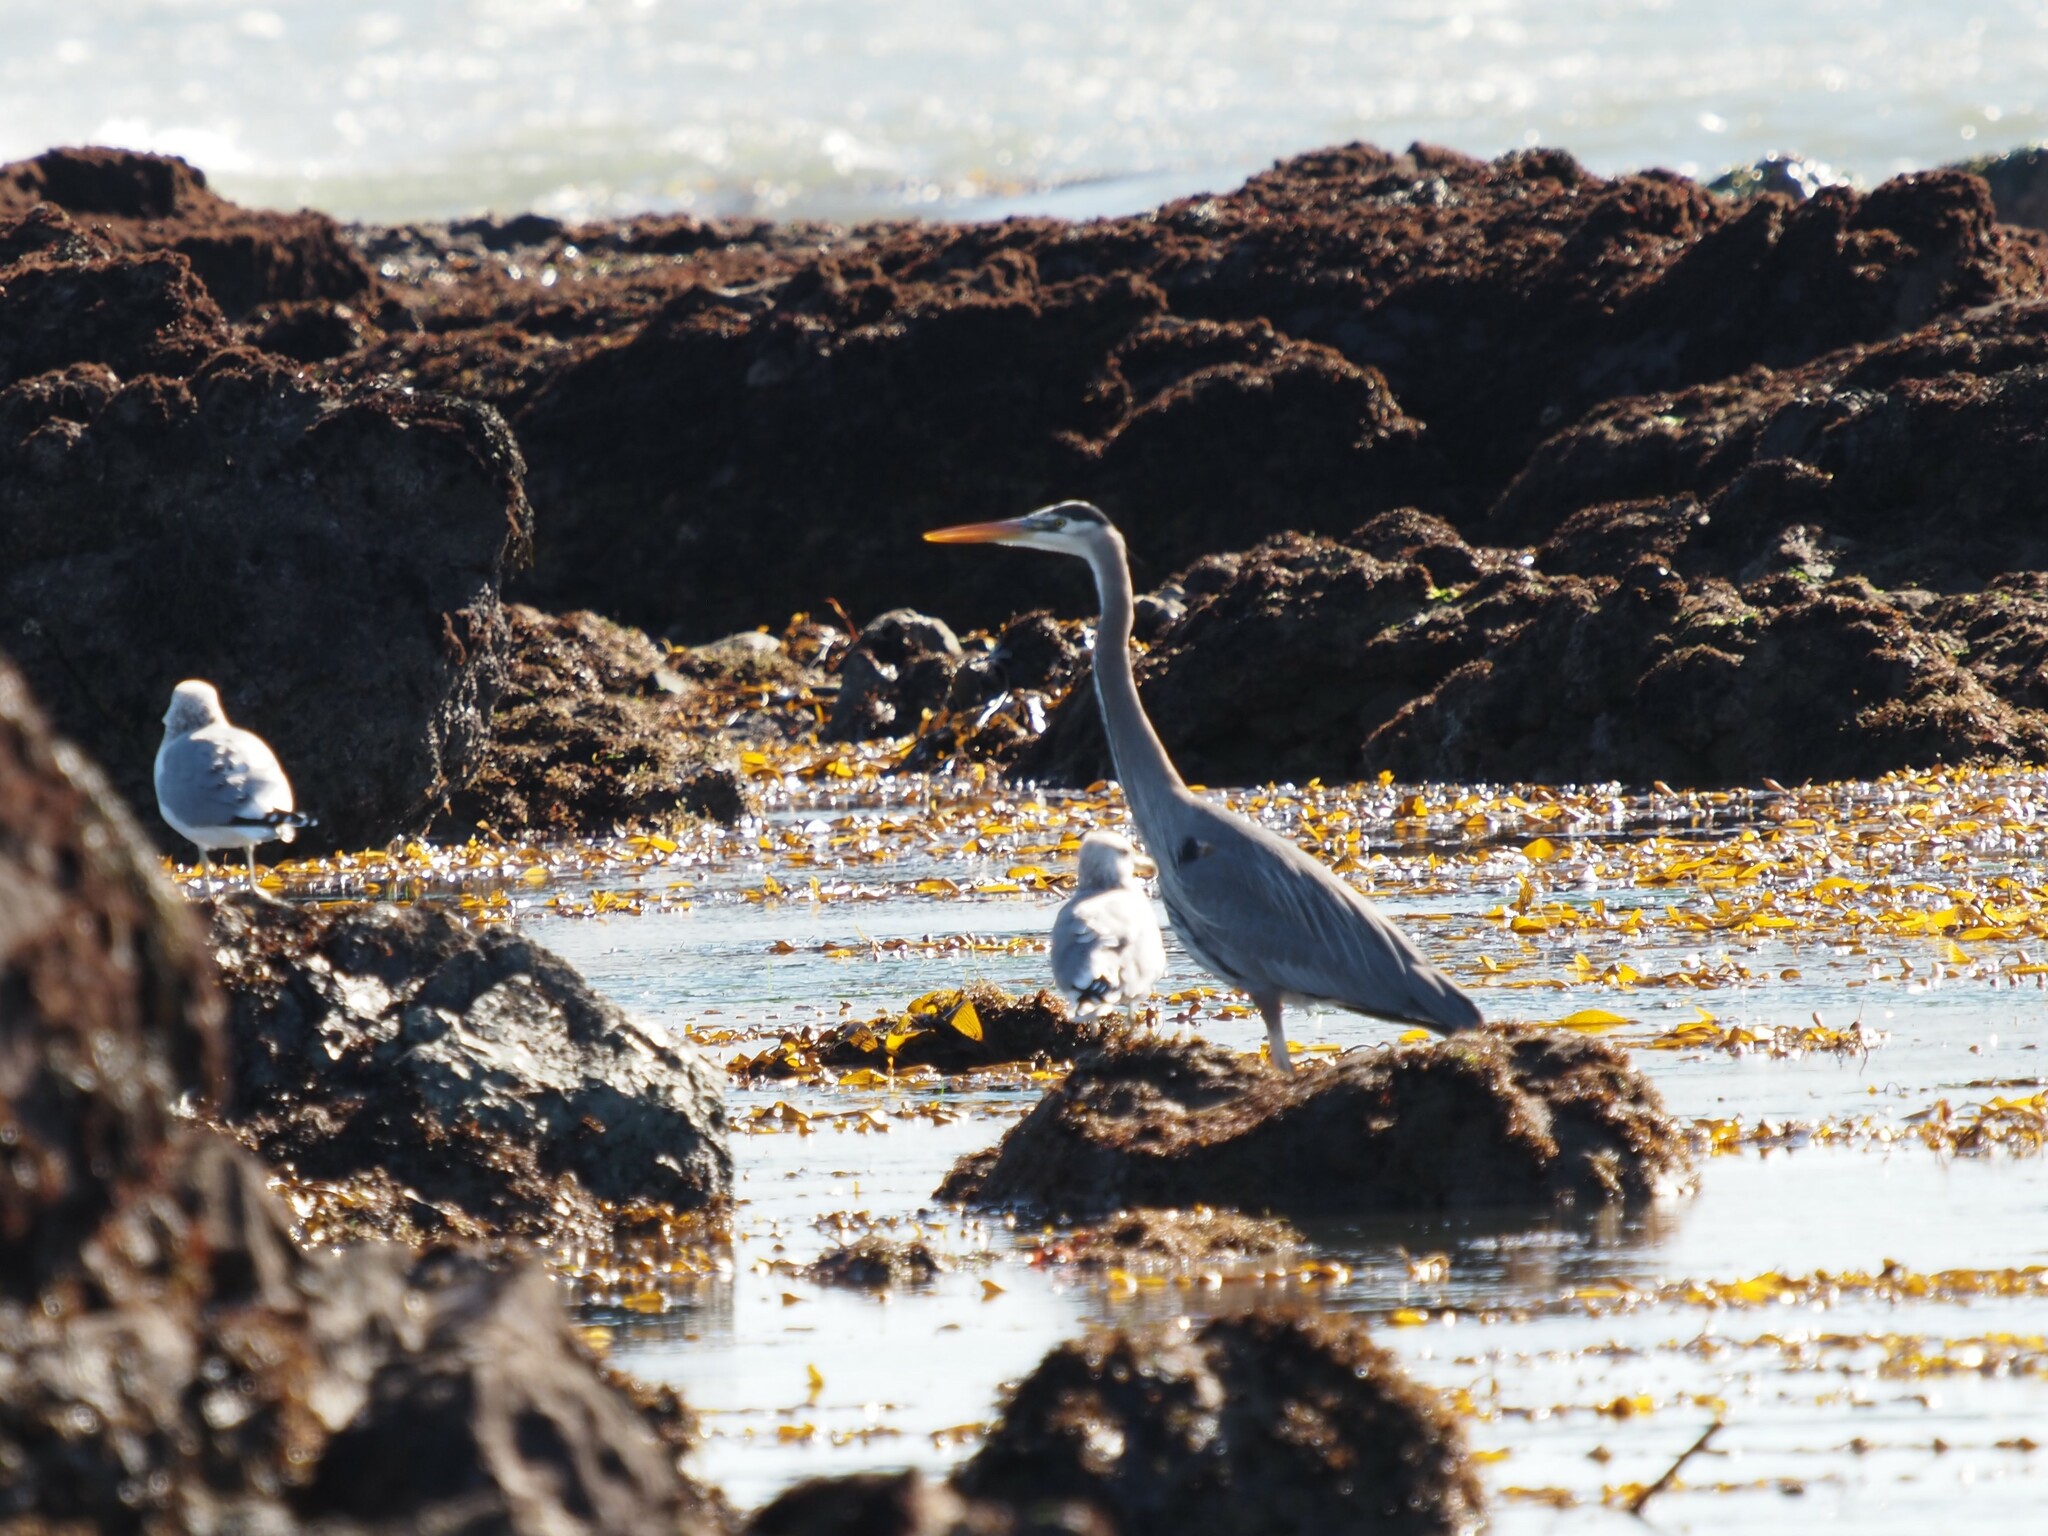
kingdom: Animalia
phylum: Chordata
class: Aves
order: Pelecaniformes
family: Ardeidae
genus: Ardea
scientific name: Ardea herodias
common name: Great blue heron
